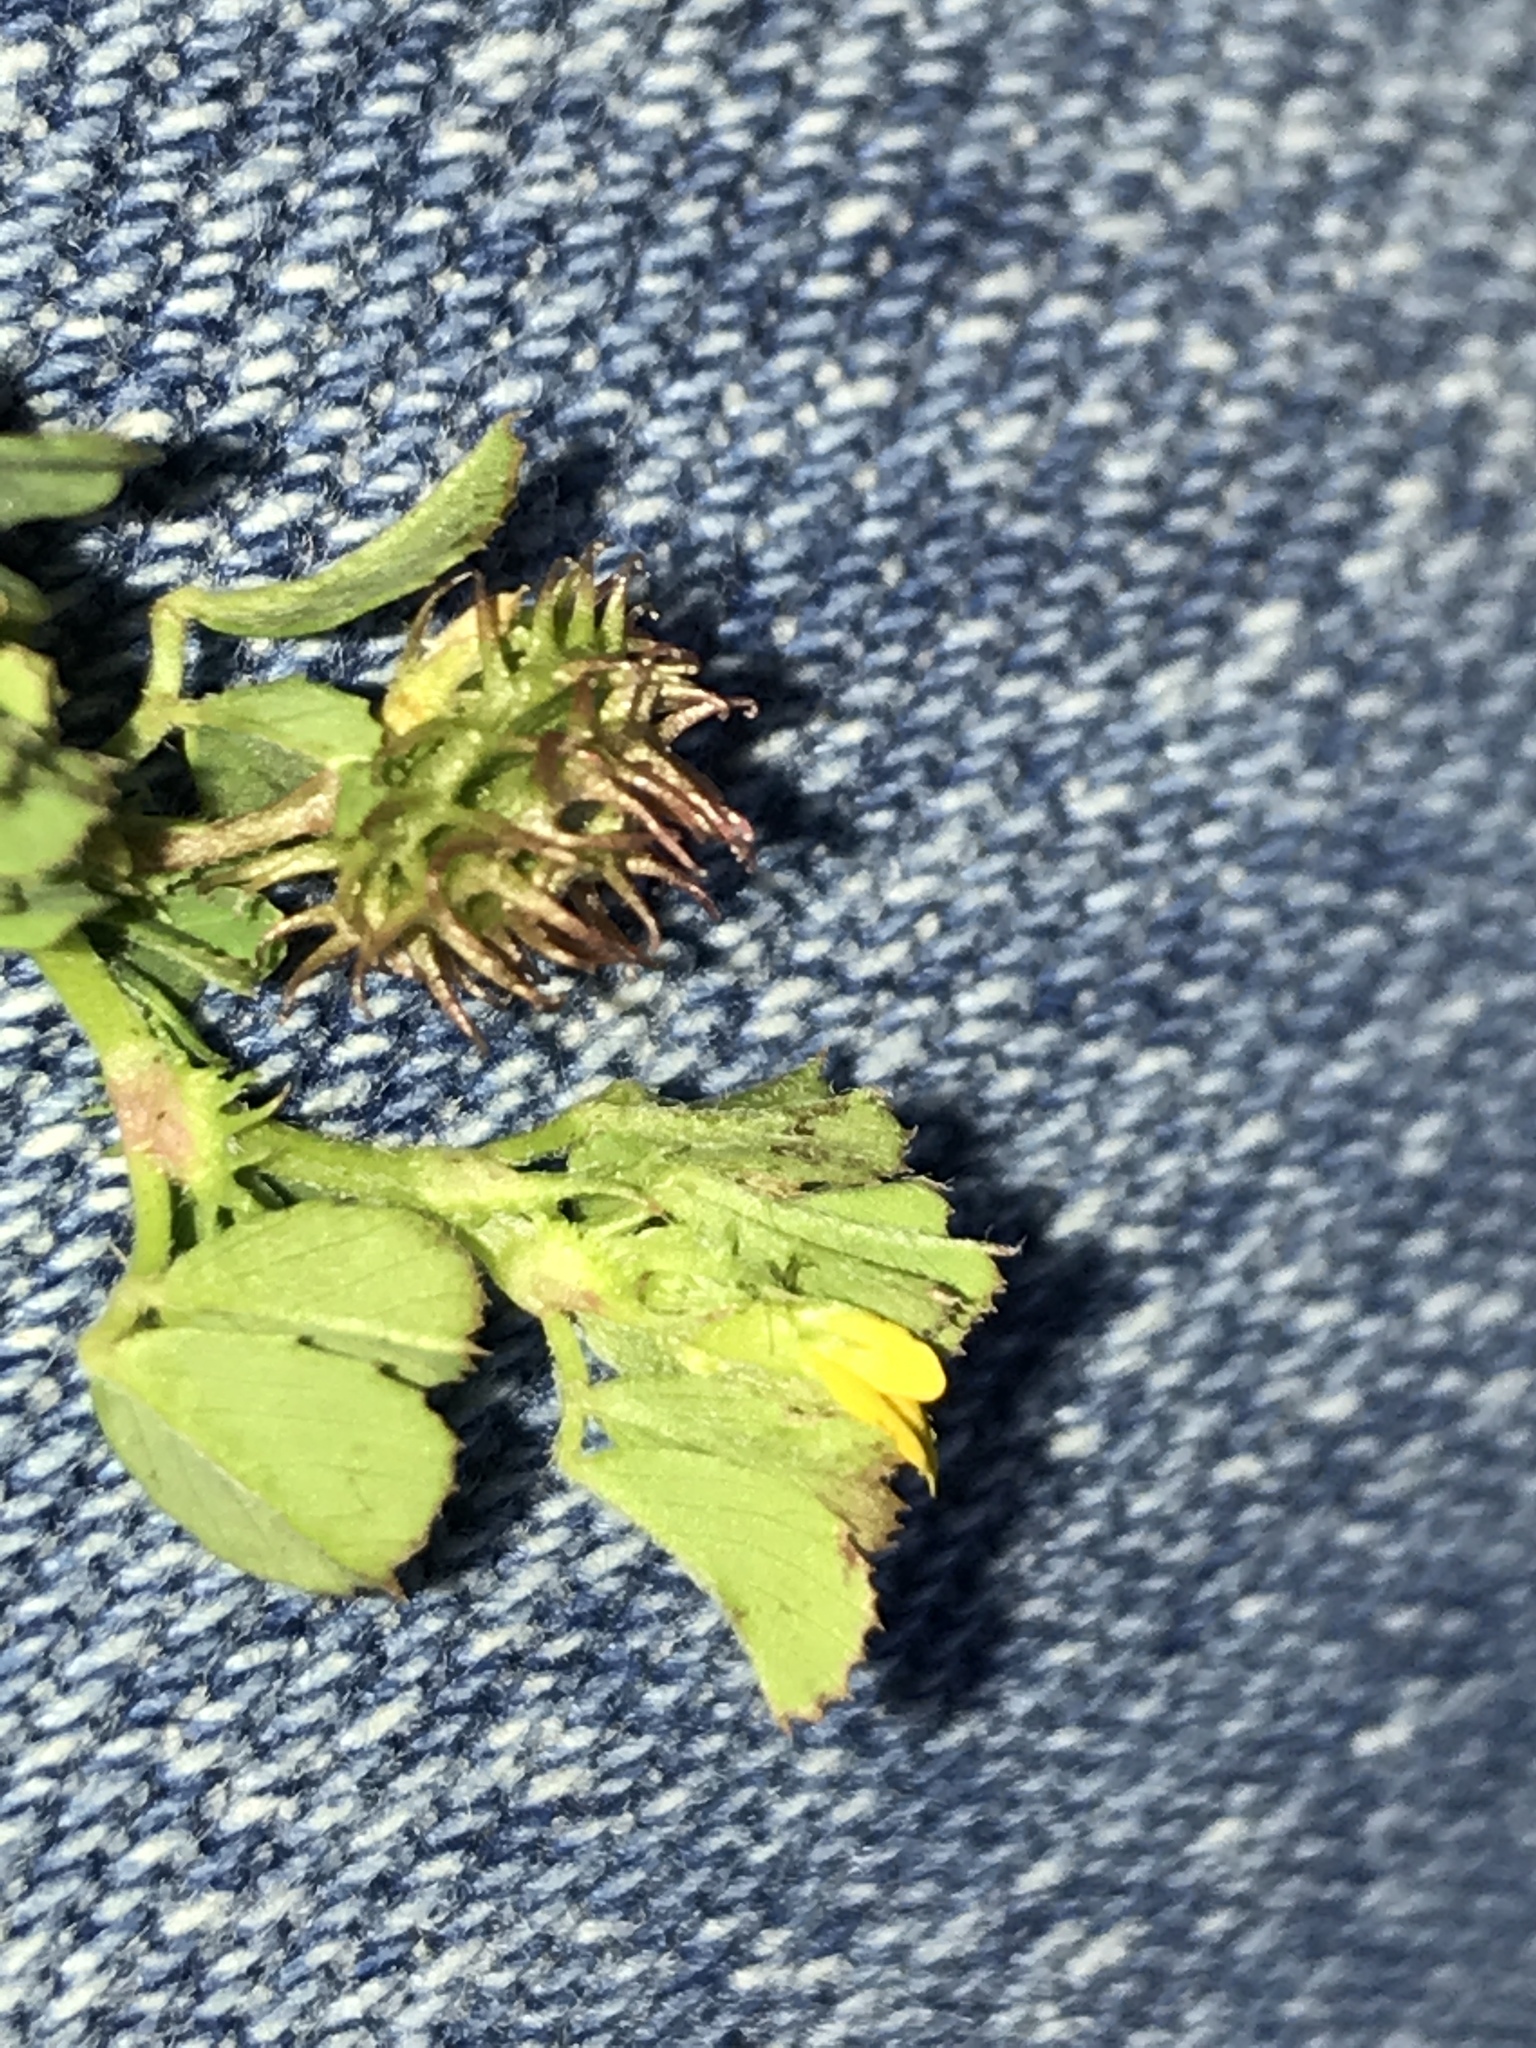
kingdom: Plantae
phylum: Tracheophyta
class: Magnoliopsida
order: Fabales
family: Fabaceae
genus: Medicago
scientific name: Medicago praecox
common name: Early medick
